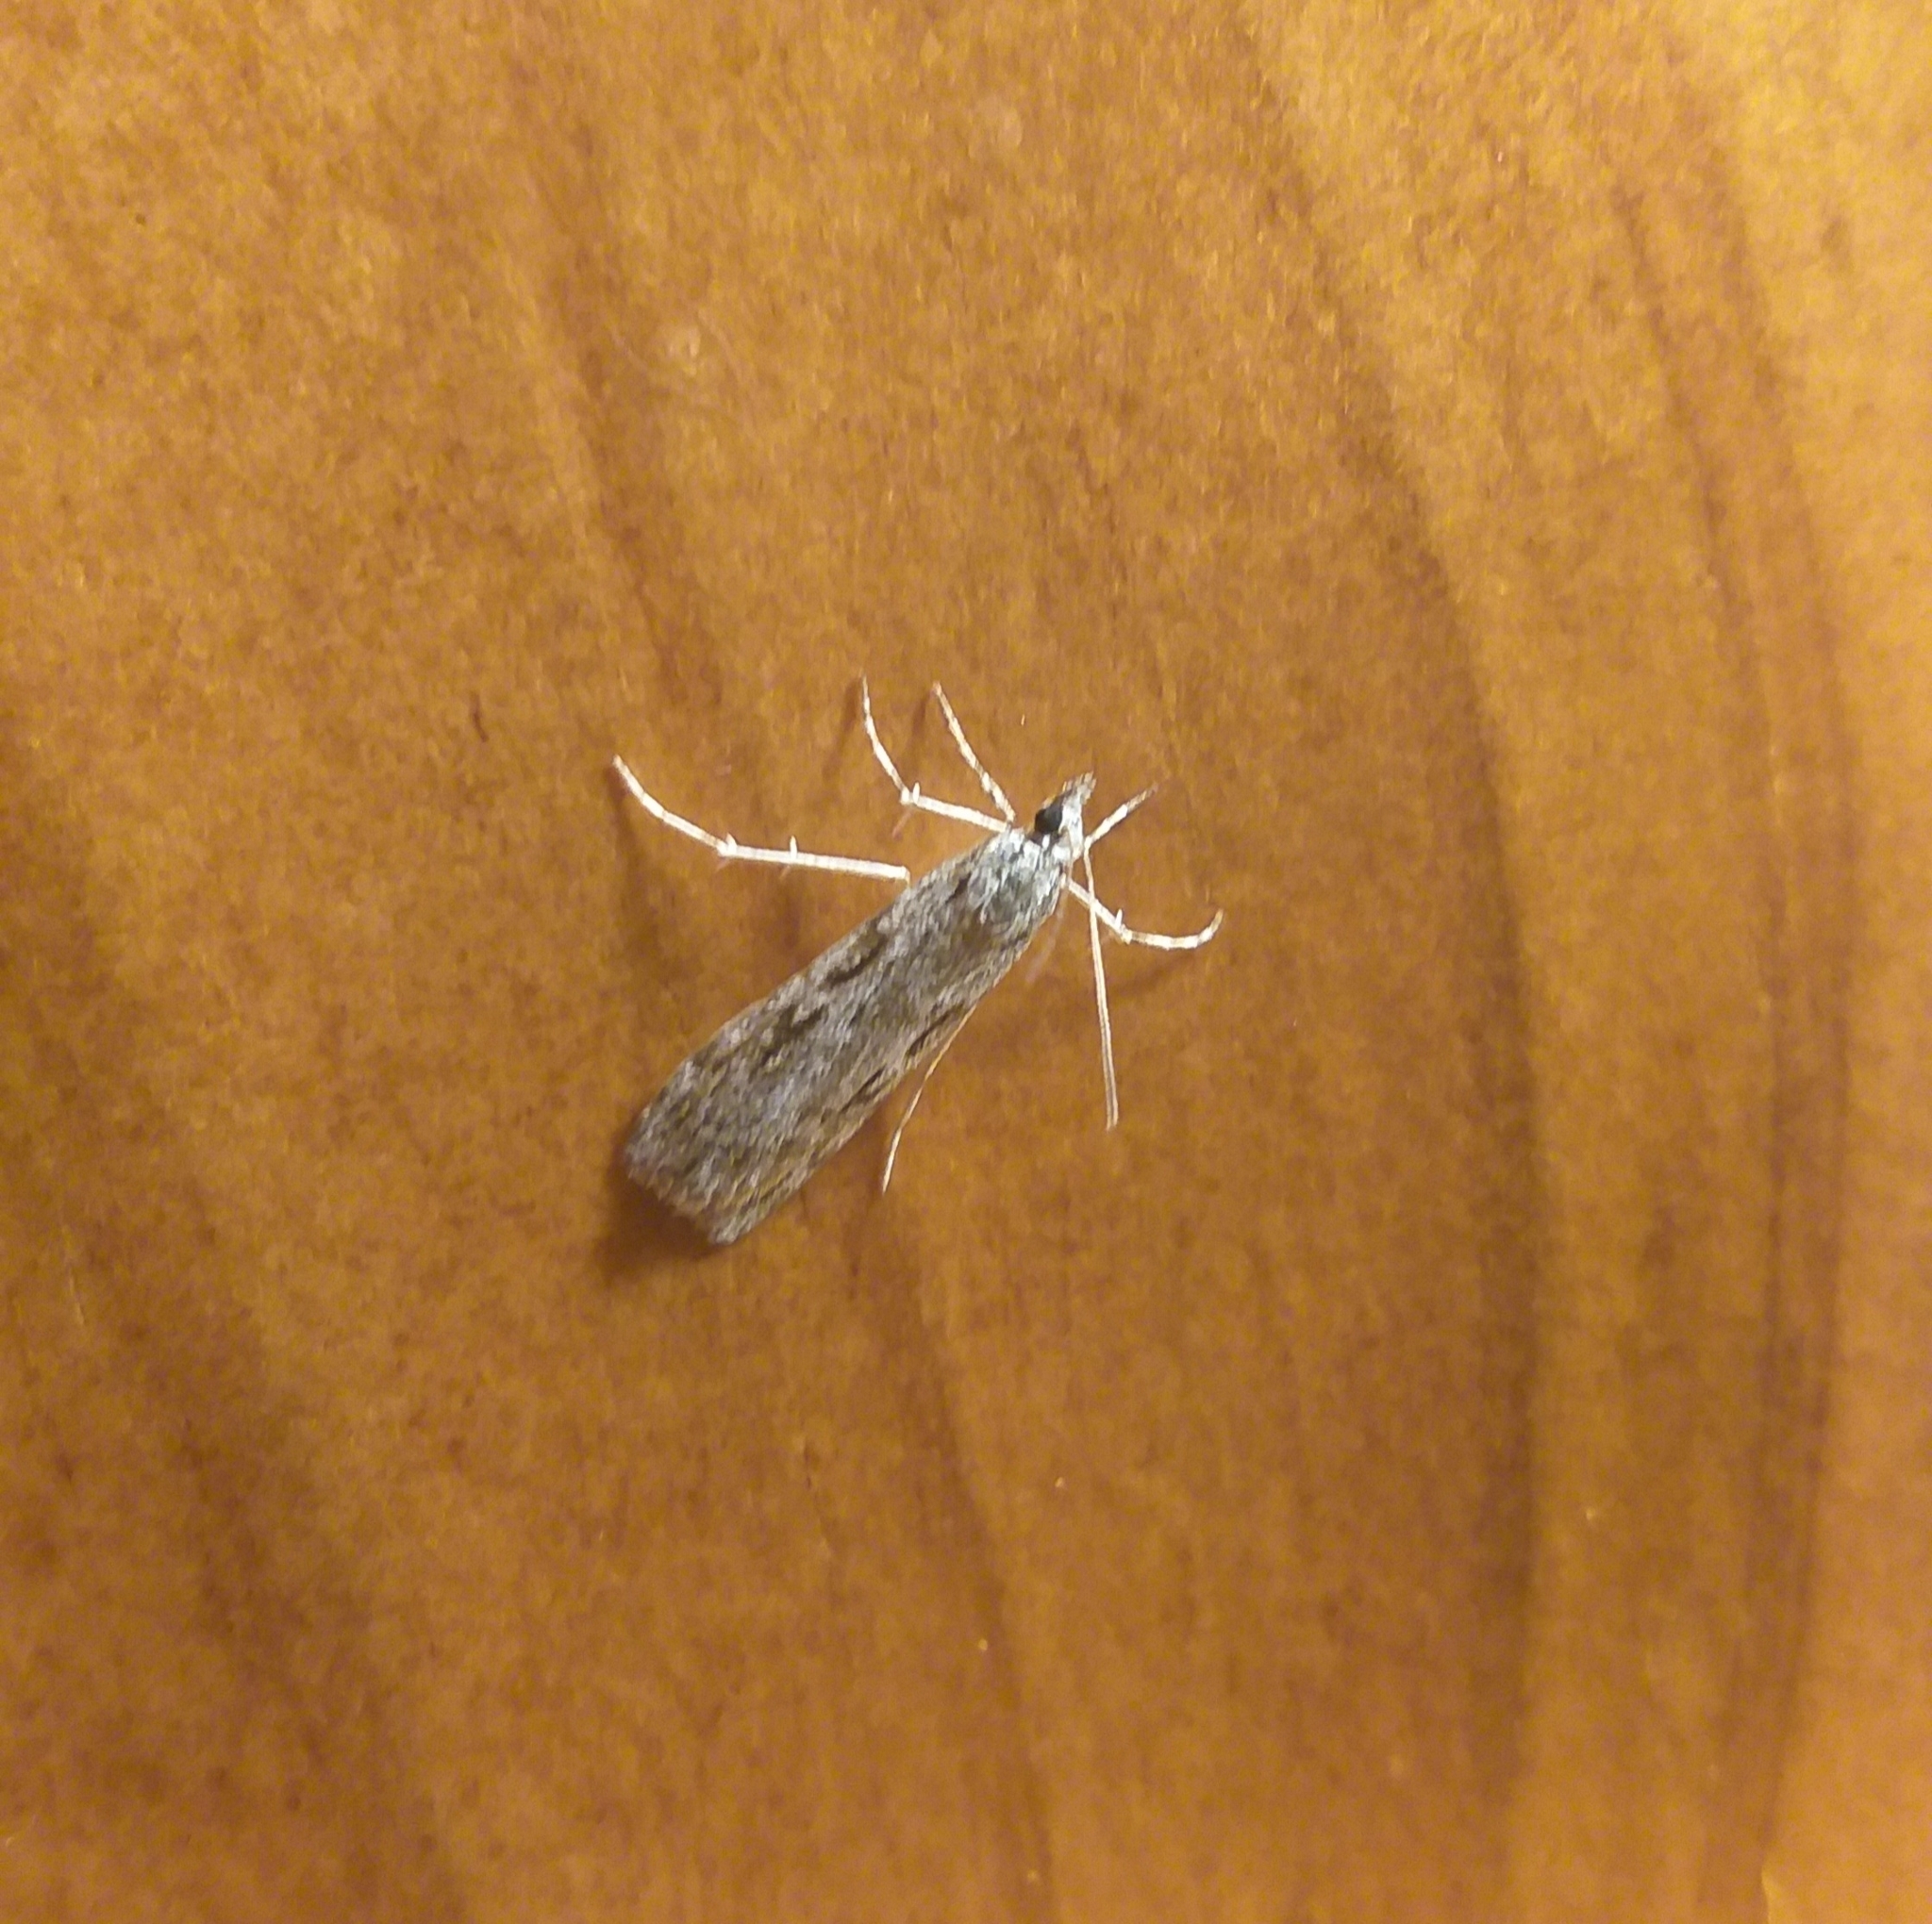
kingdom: Animalia
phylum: Arthropoda
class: Insecta
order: Lepidoptera
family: Crambidae
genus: Scoparia
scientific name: Scoparia halopis
